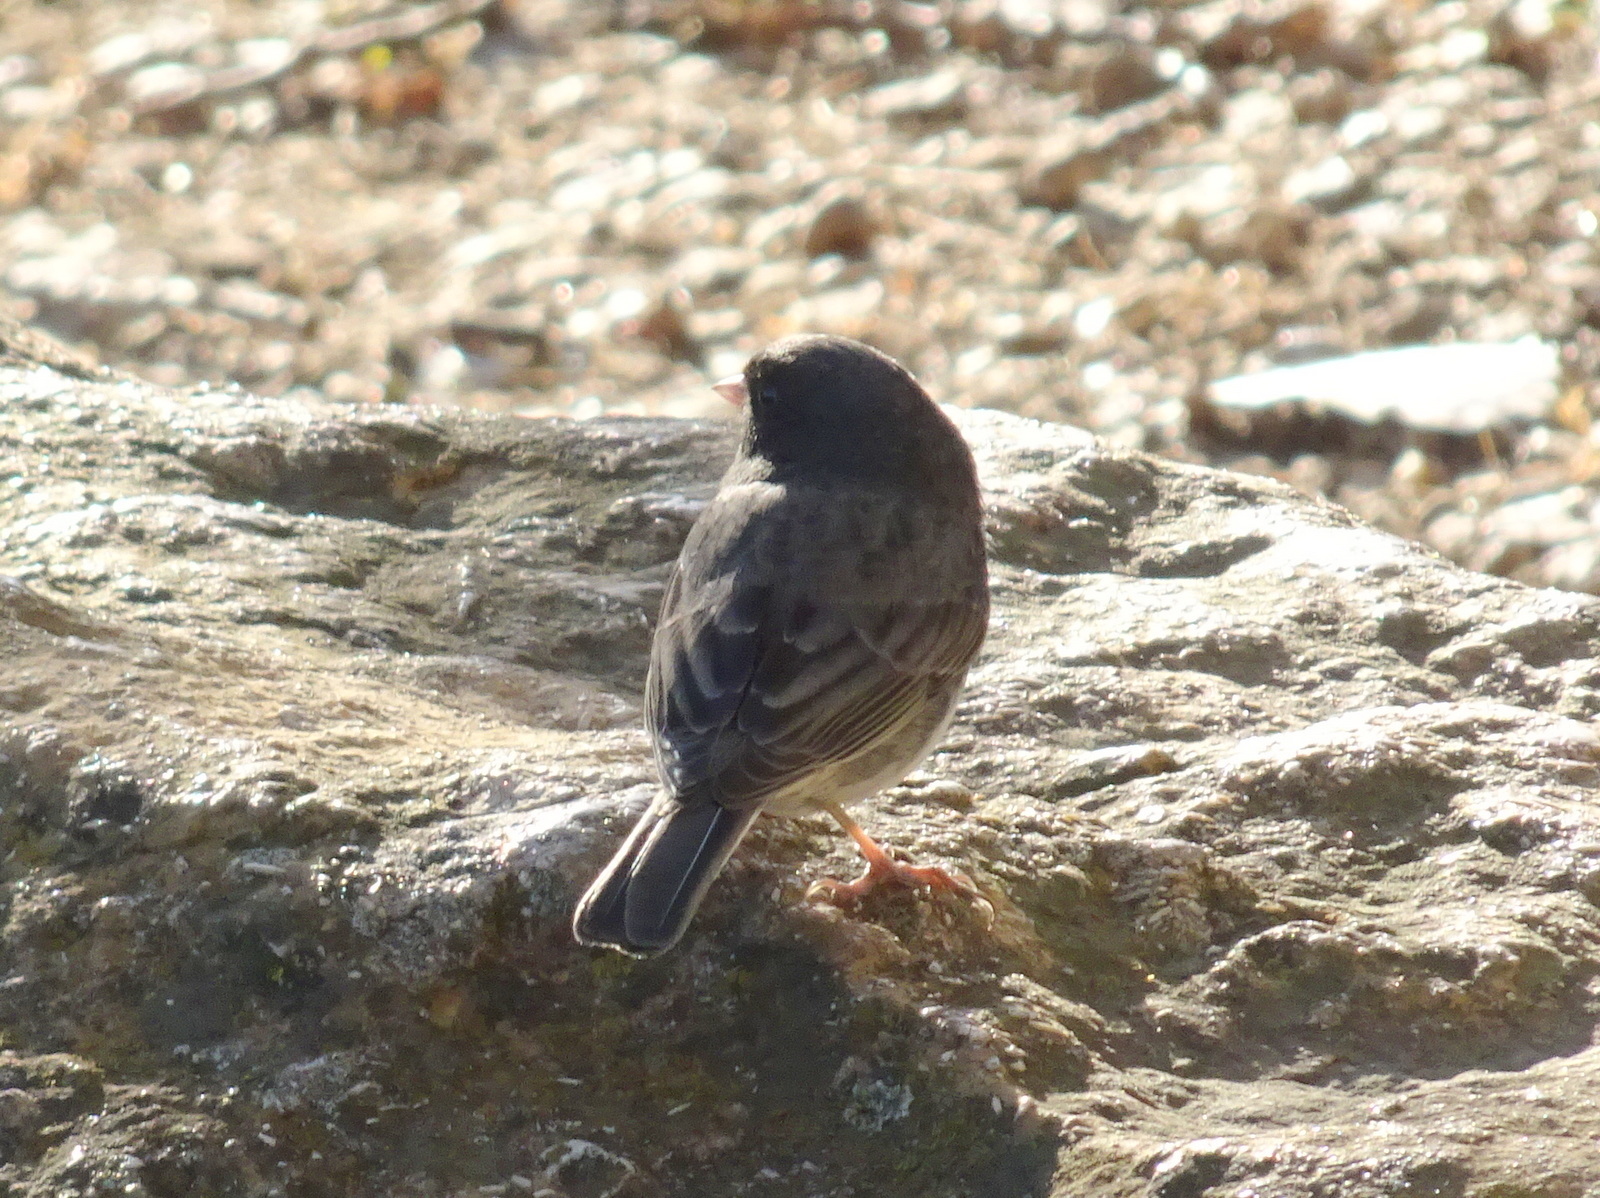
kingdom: Animalia
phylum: Chordata
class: Aves
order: Passeriformes
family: Passerellidae
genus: Junco
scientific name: Junco hyemalis
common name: Dark-eyed junco
